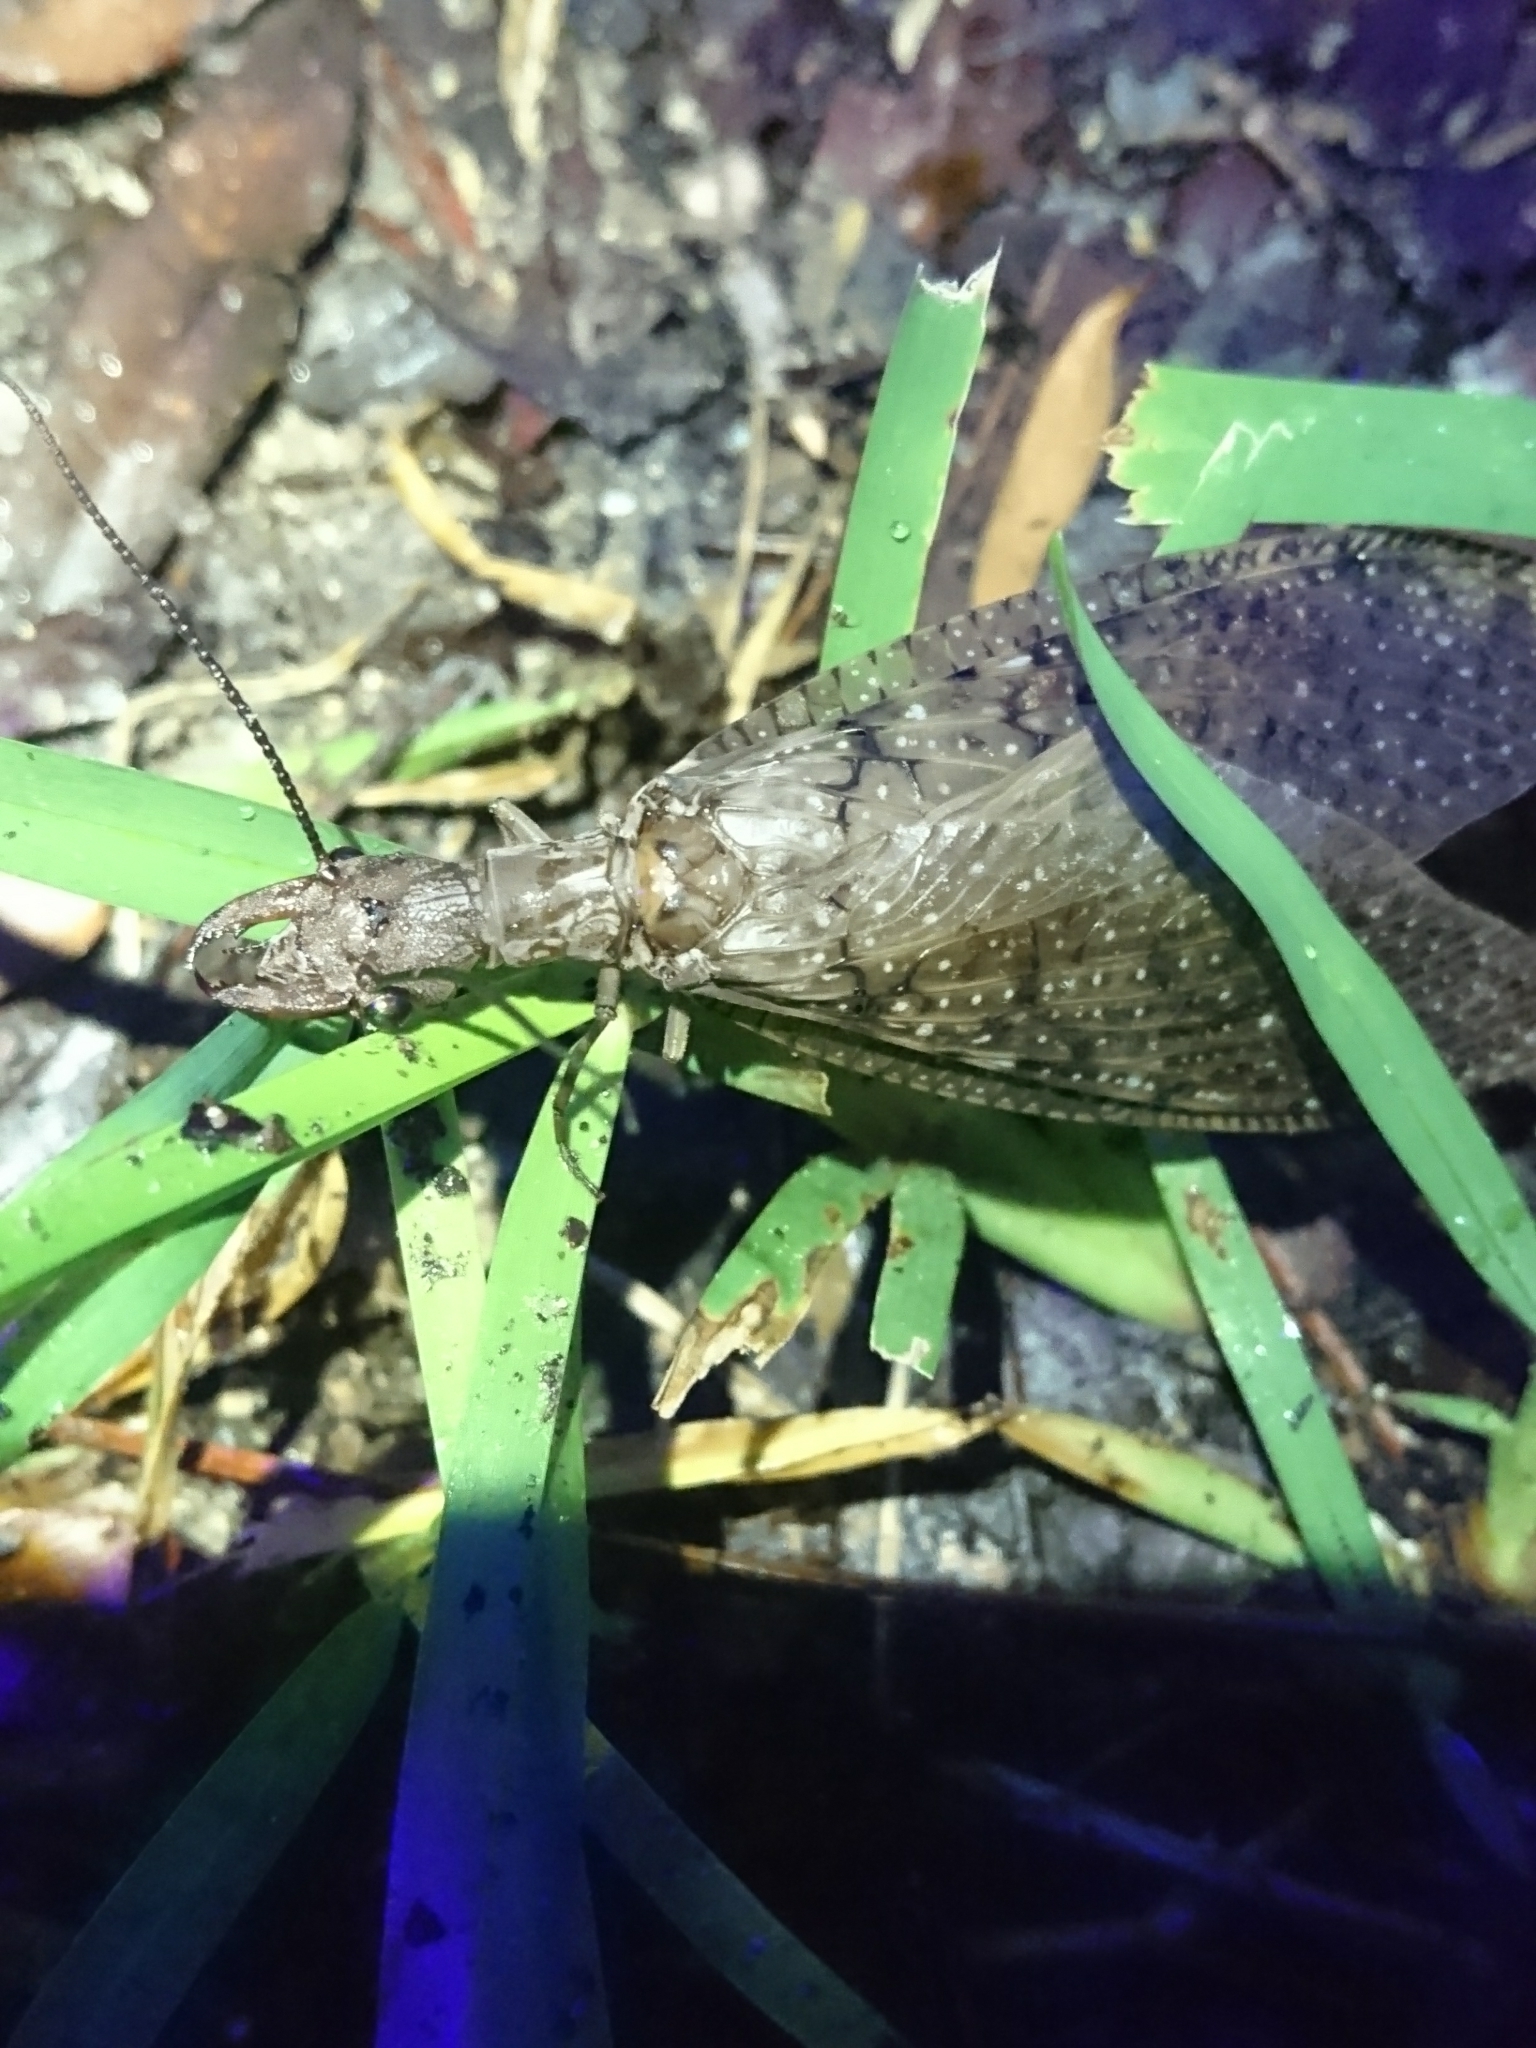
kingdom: Animalia
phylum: Arthropoda
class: Insecta
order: Megaloptera
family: Corydalidae
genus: Corydalus
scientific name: Corydalus cornutus
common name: Dobsonfly
